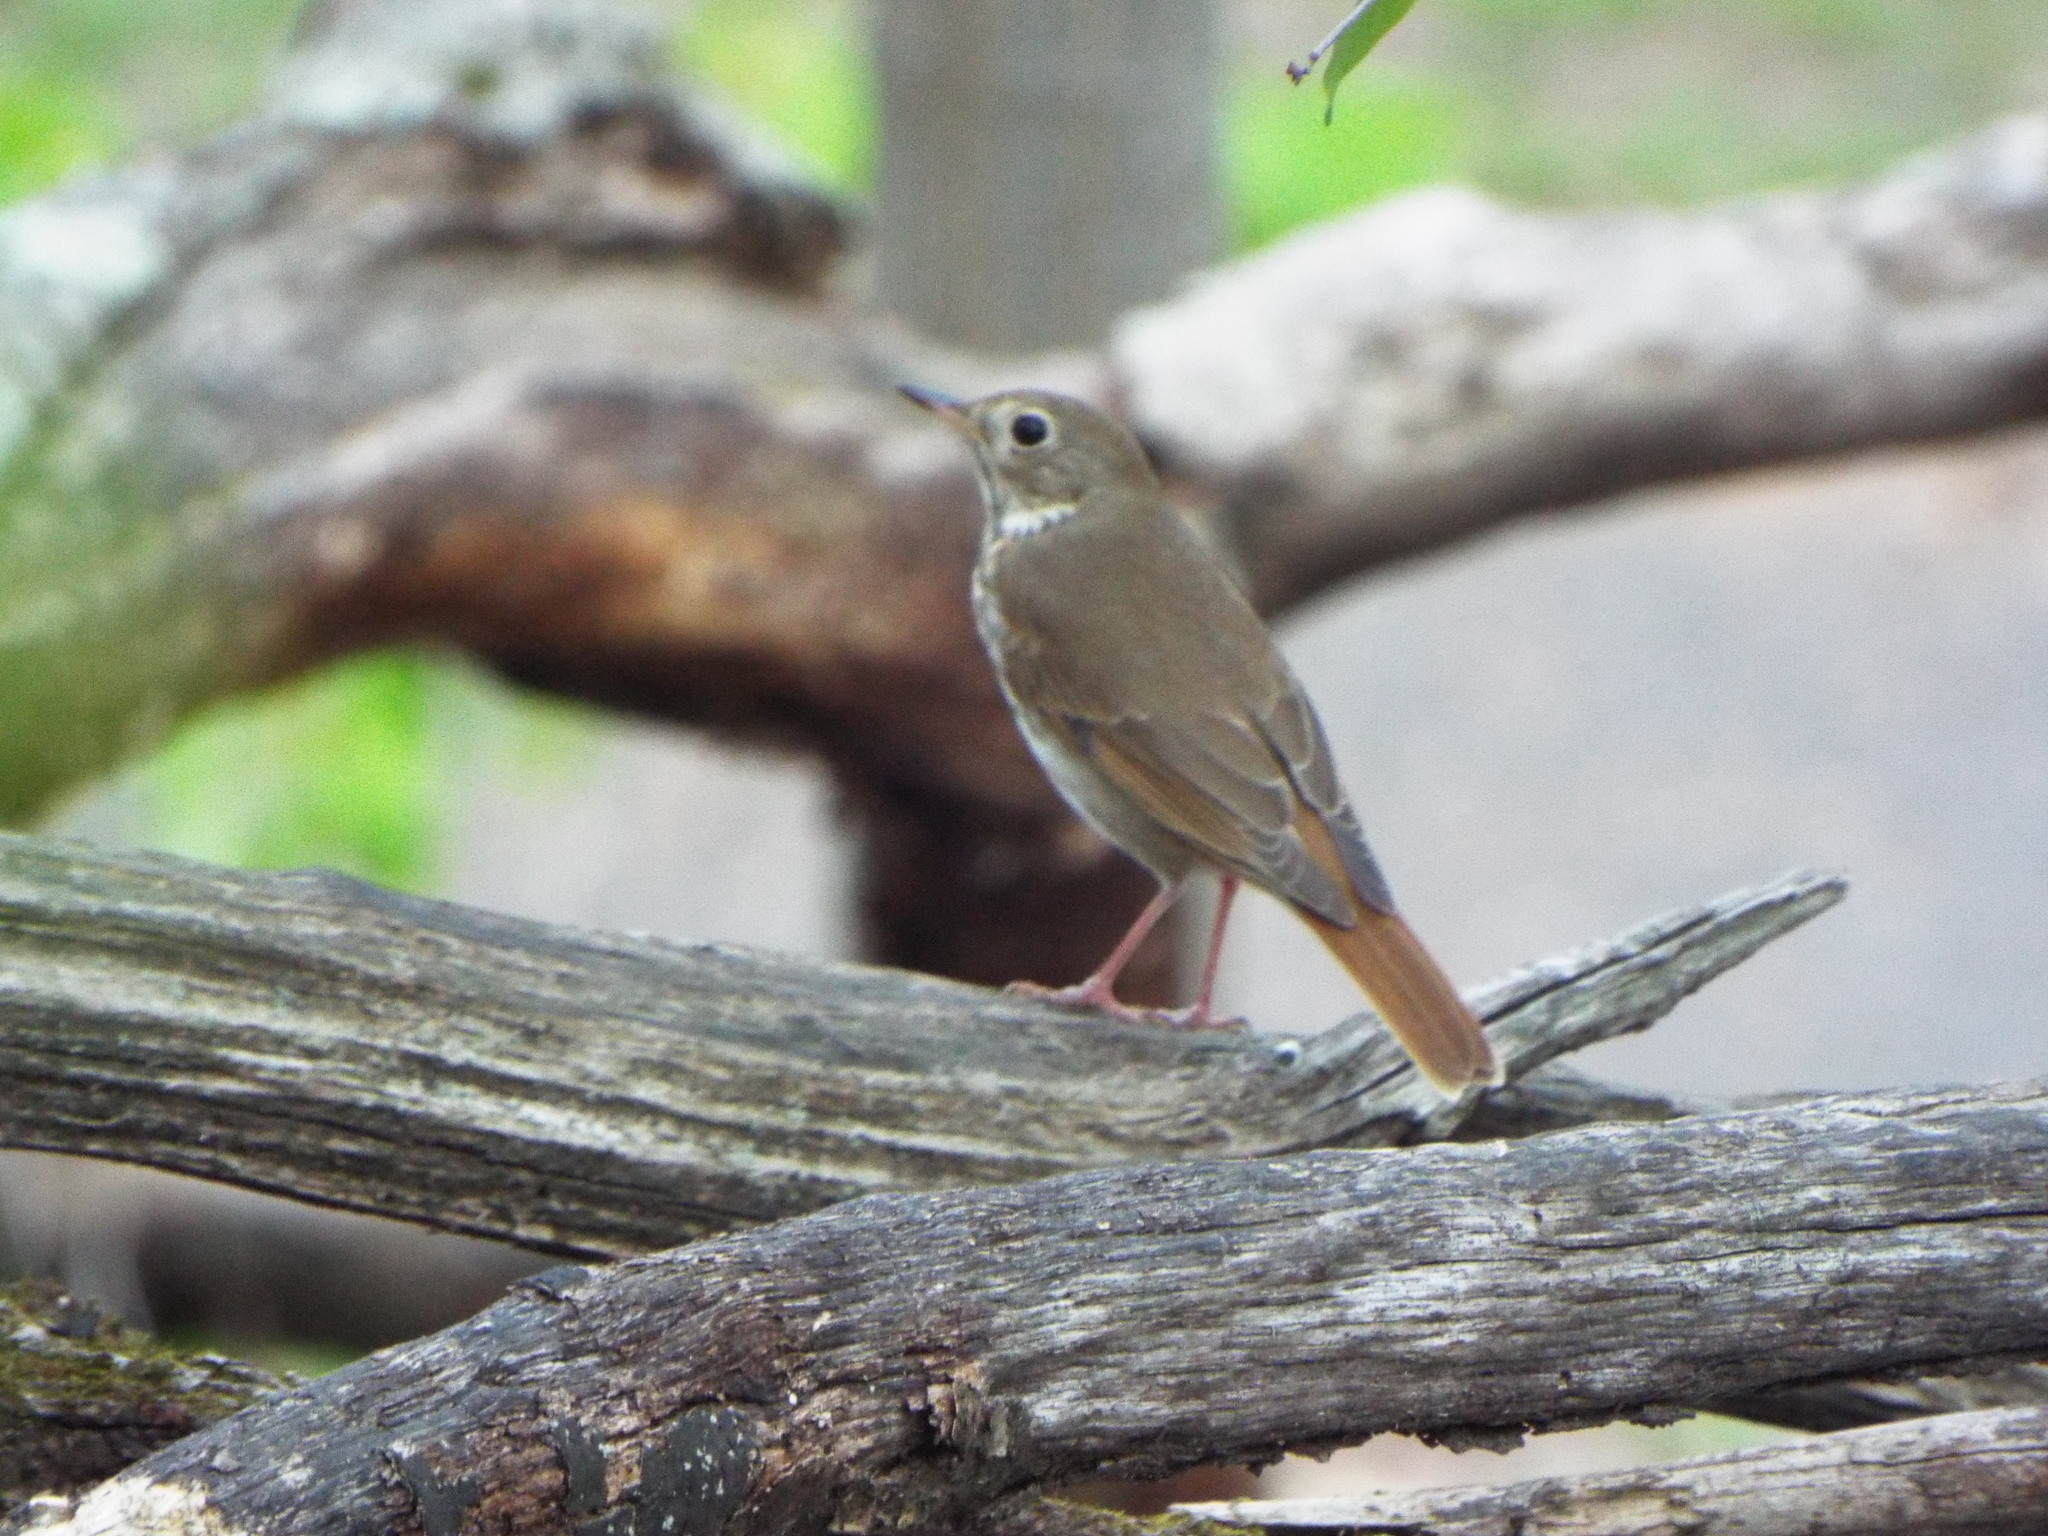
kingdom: Animalia
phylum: Chordata
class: Aves
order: Passeriformes
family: Turdidae
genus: Catharus
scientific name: Catharus guttatus
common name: Hermit thrush
